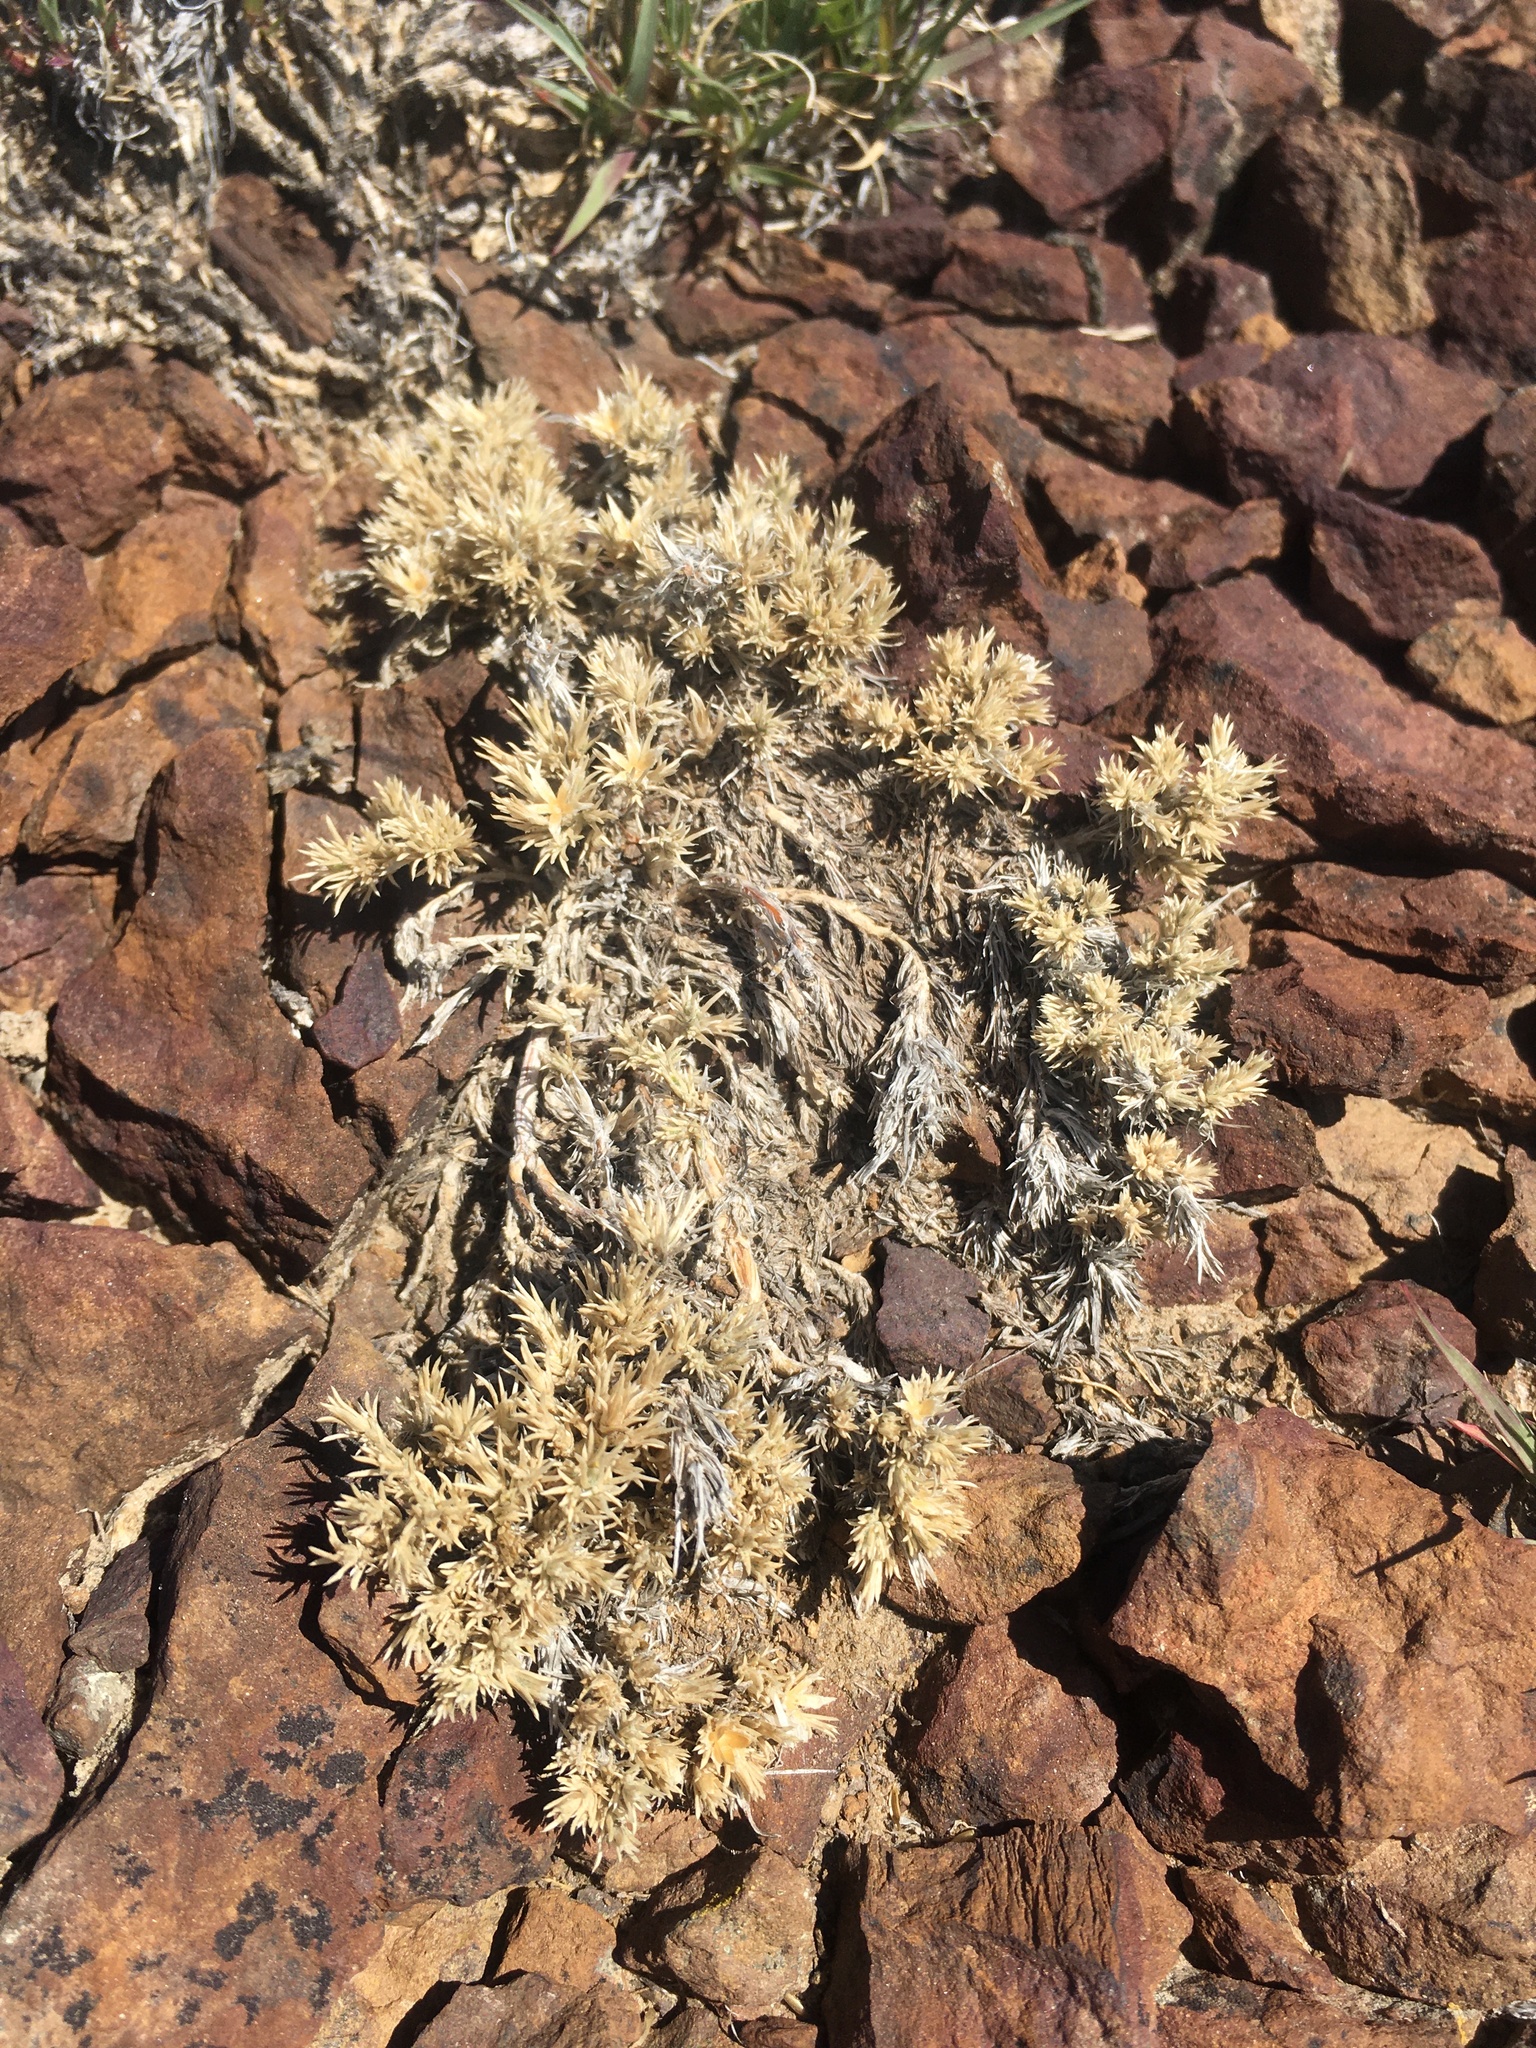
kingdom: Plantae
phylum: Tracheophyta
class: Magnoliopsida
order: Ericales
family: Polemoniaceae
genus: Phlox
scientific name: Phlox hoodii
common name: Moss phlox
